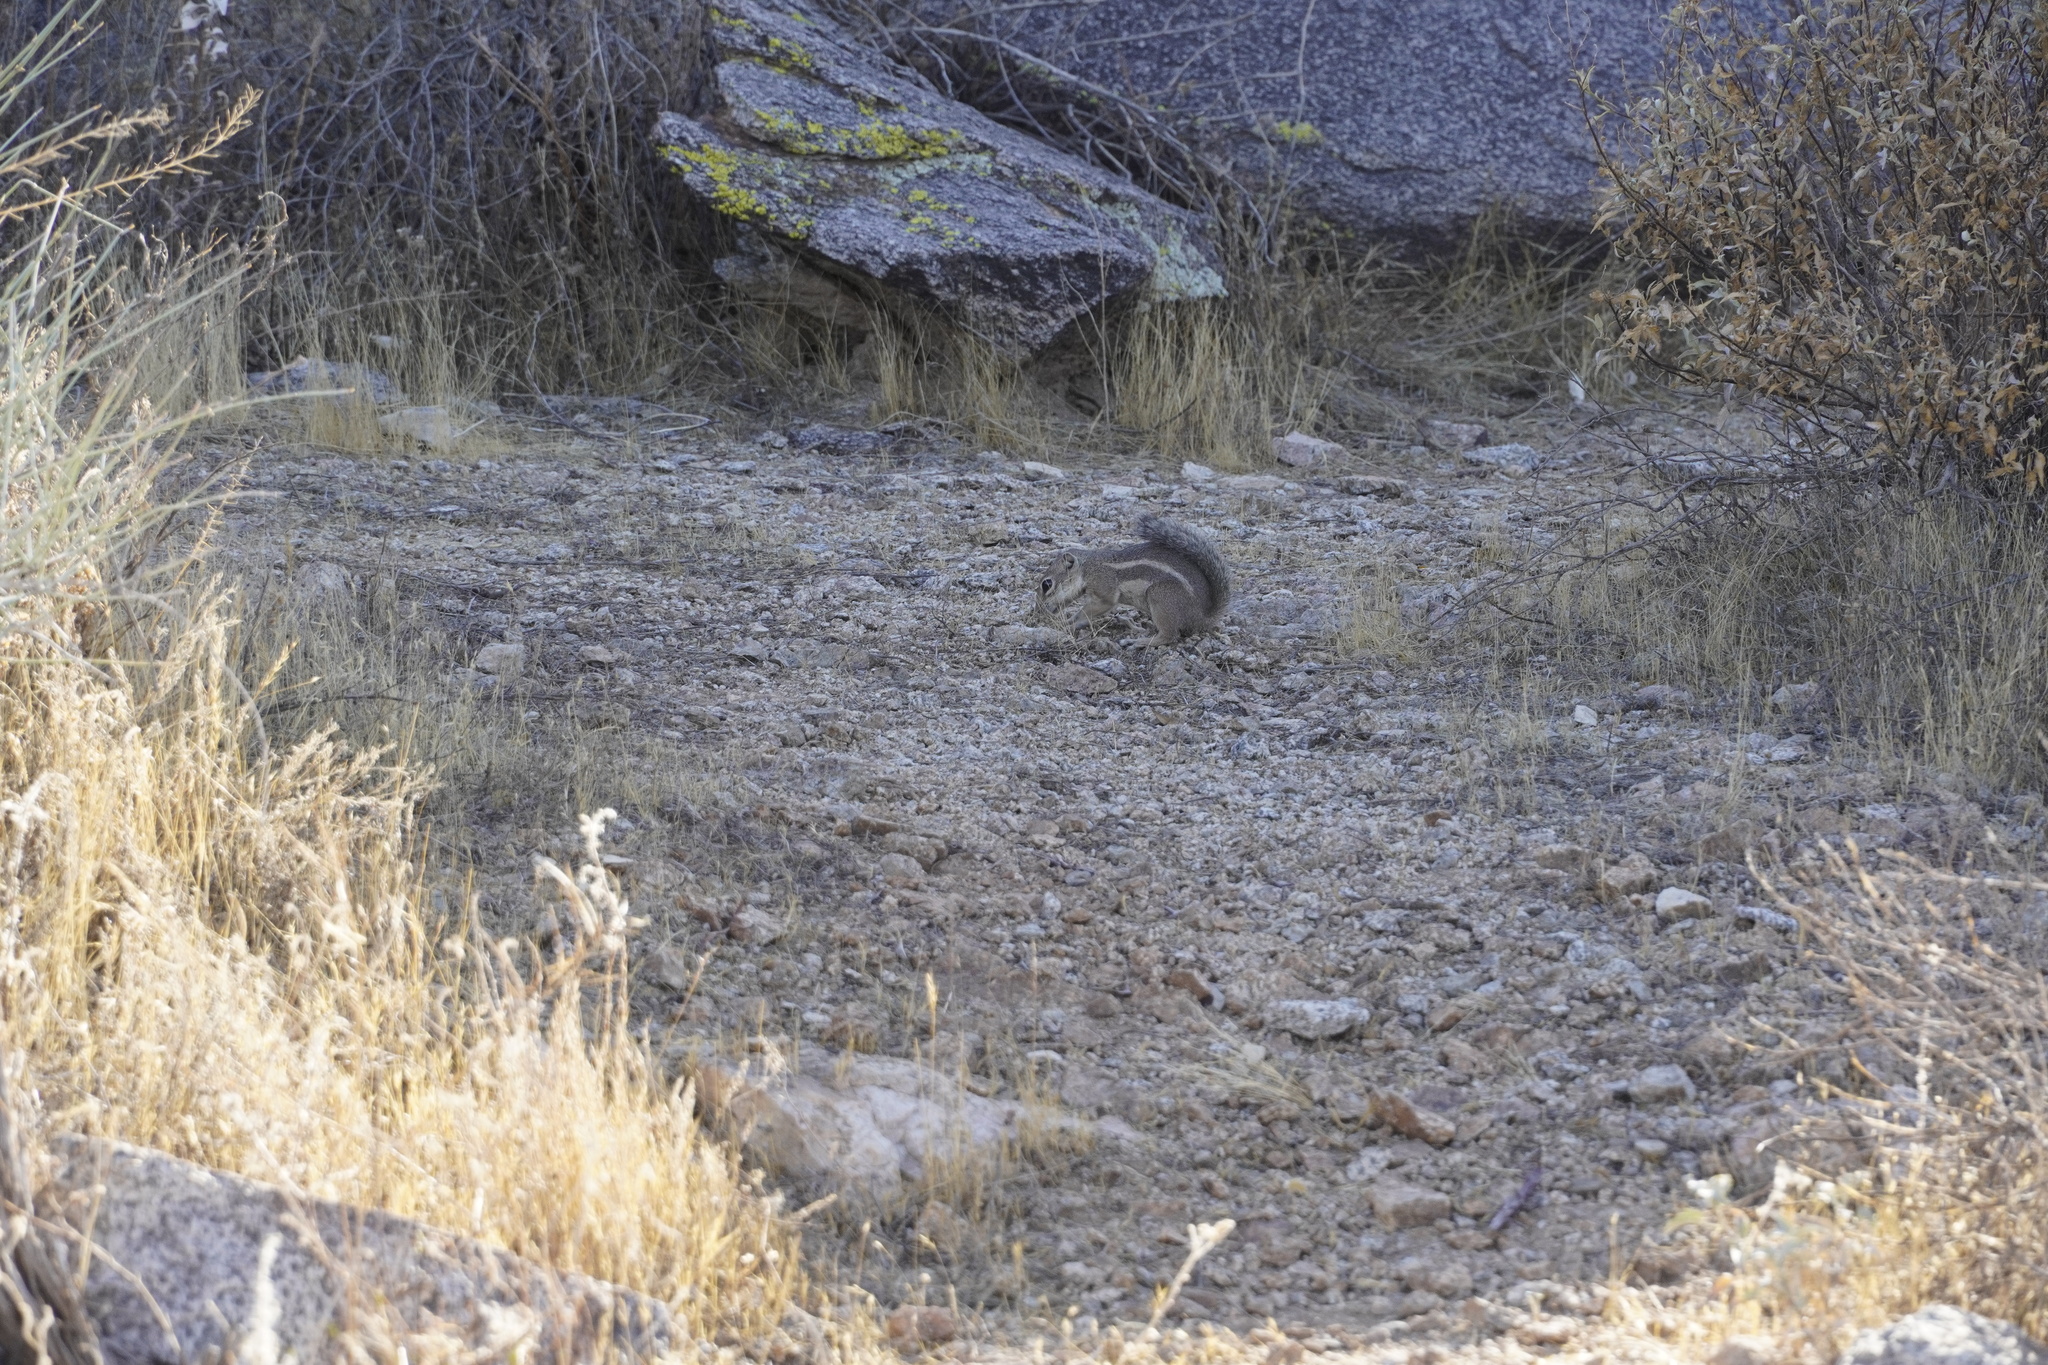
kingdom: Animalia
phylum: Chordata
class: Mammalia
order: Rodentia
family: Sciuridae
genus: Ammospermophilus
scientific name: Ammospermophilus harrisii
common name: Harris's antelope squirrel
